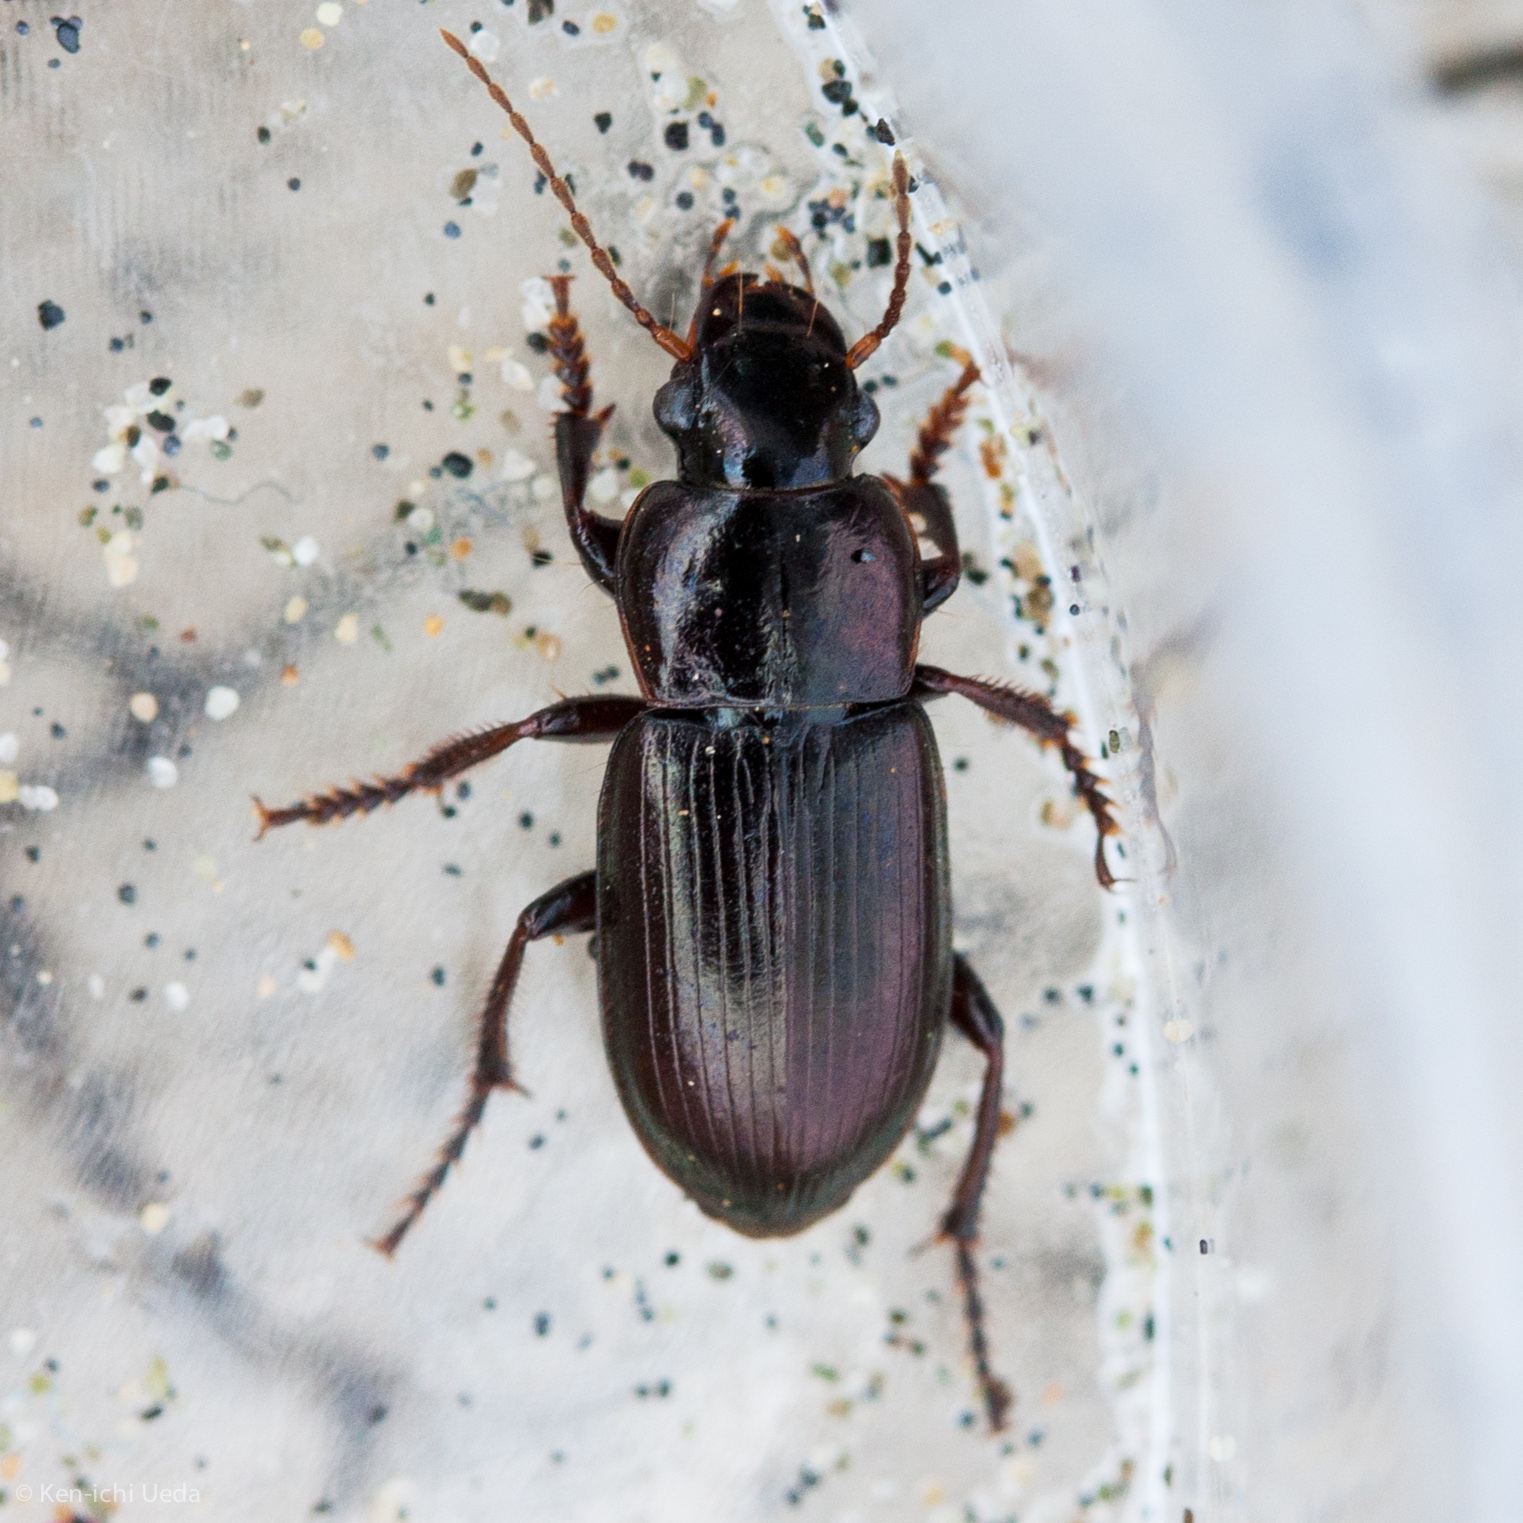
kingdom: Animalia
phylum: Arthropoda
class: Insecta
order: Coleoptera
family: Carabidae
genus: Harpalus
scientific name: Harpalus affinis
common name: Polychrome harp ground beetle
